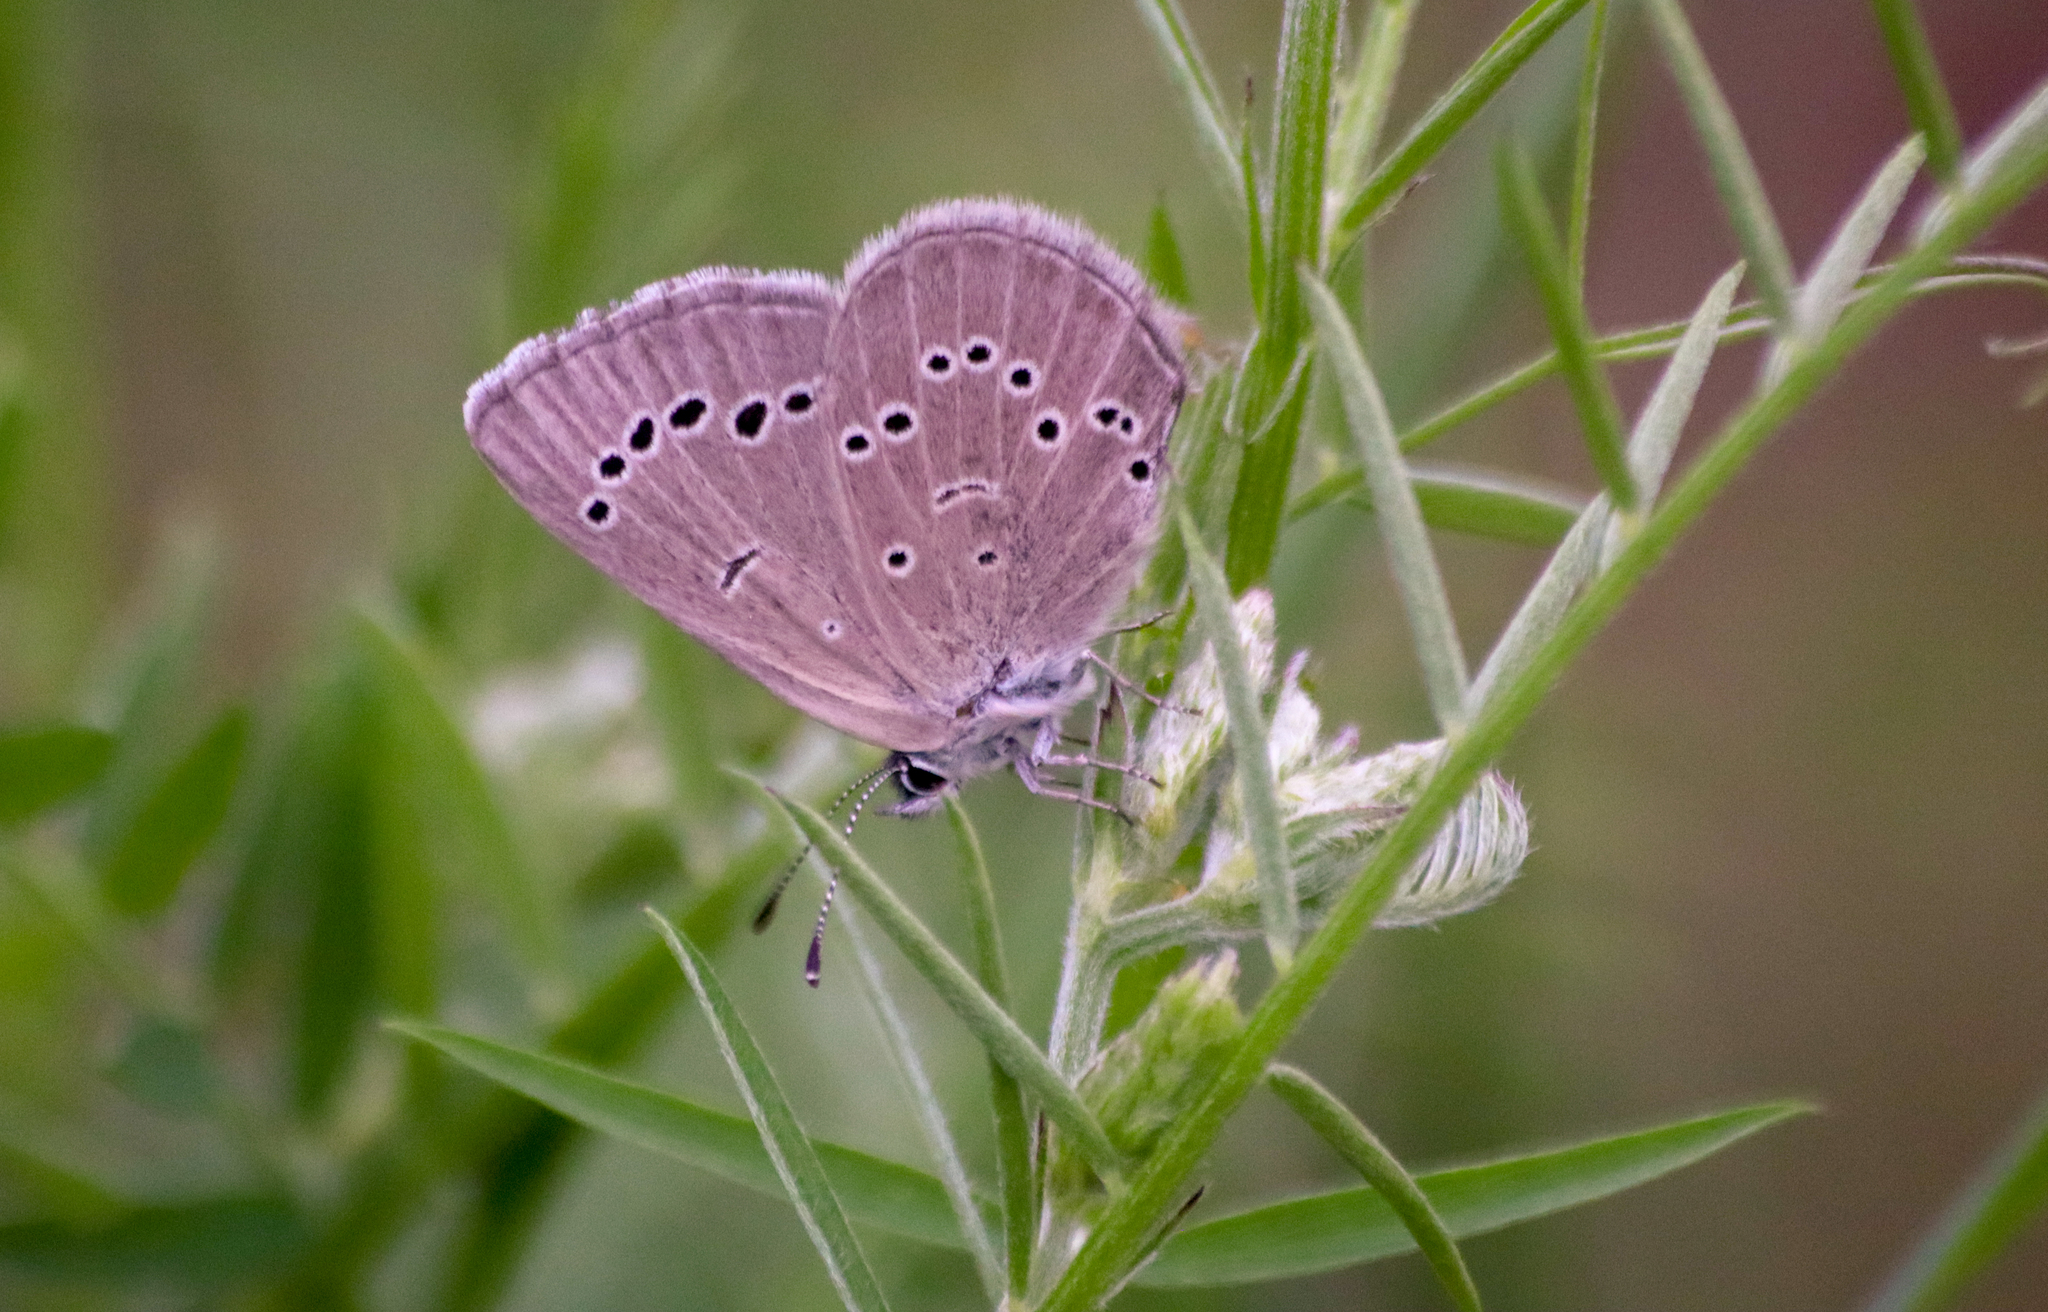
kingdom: Animalia
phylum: Arthropoda
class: Insecta
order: Lepidoptera
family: Lycaenidae
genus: Glaucopsyche
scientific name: Glaucopsyche lygdamus
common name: Silvery blue
